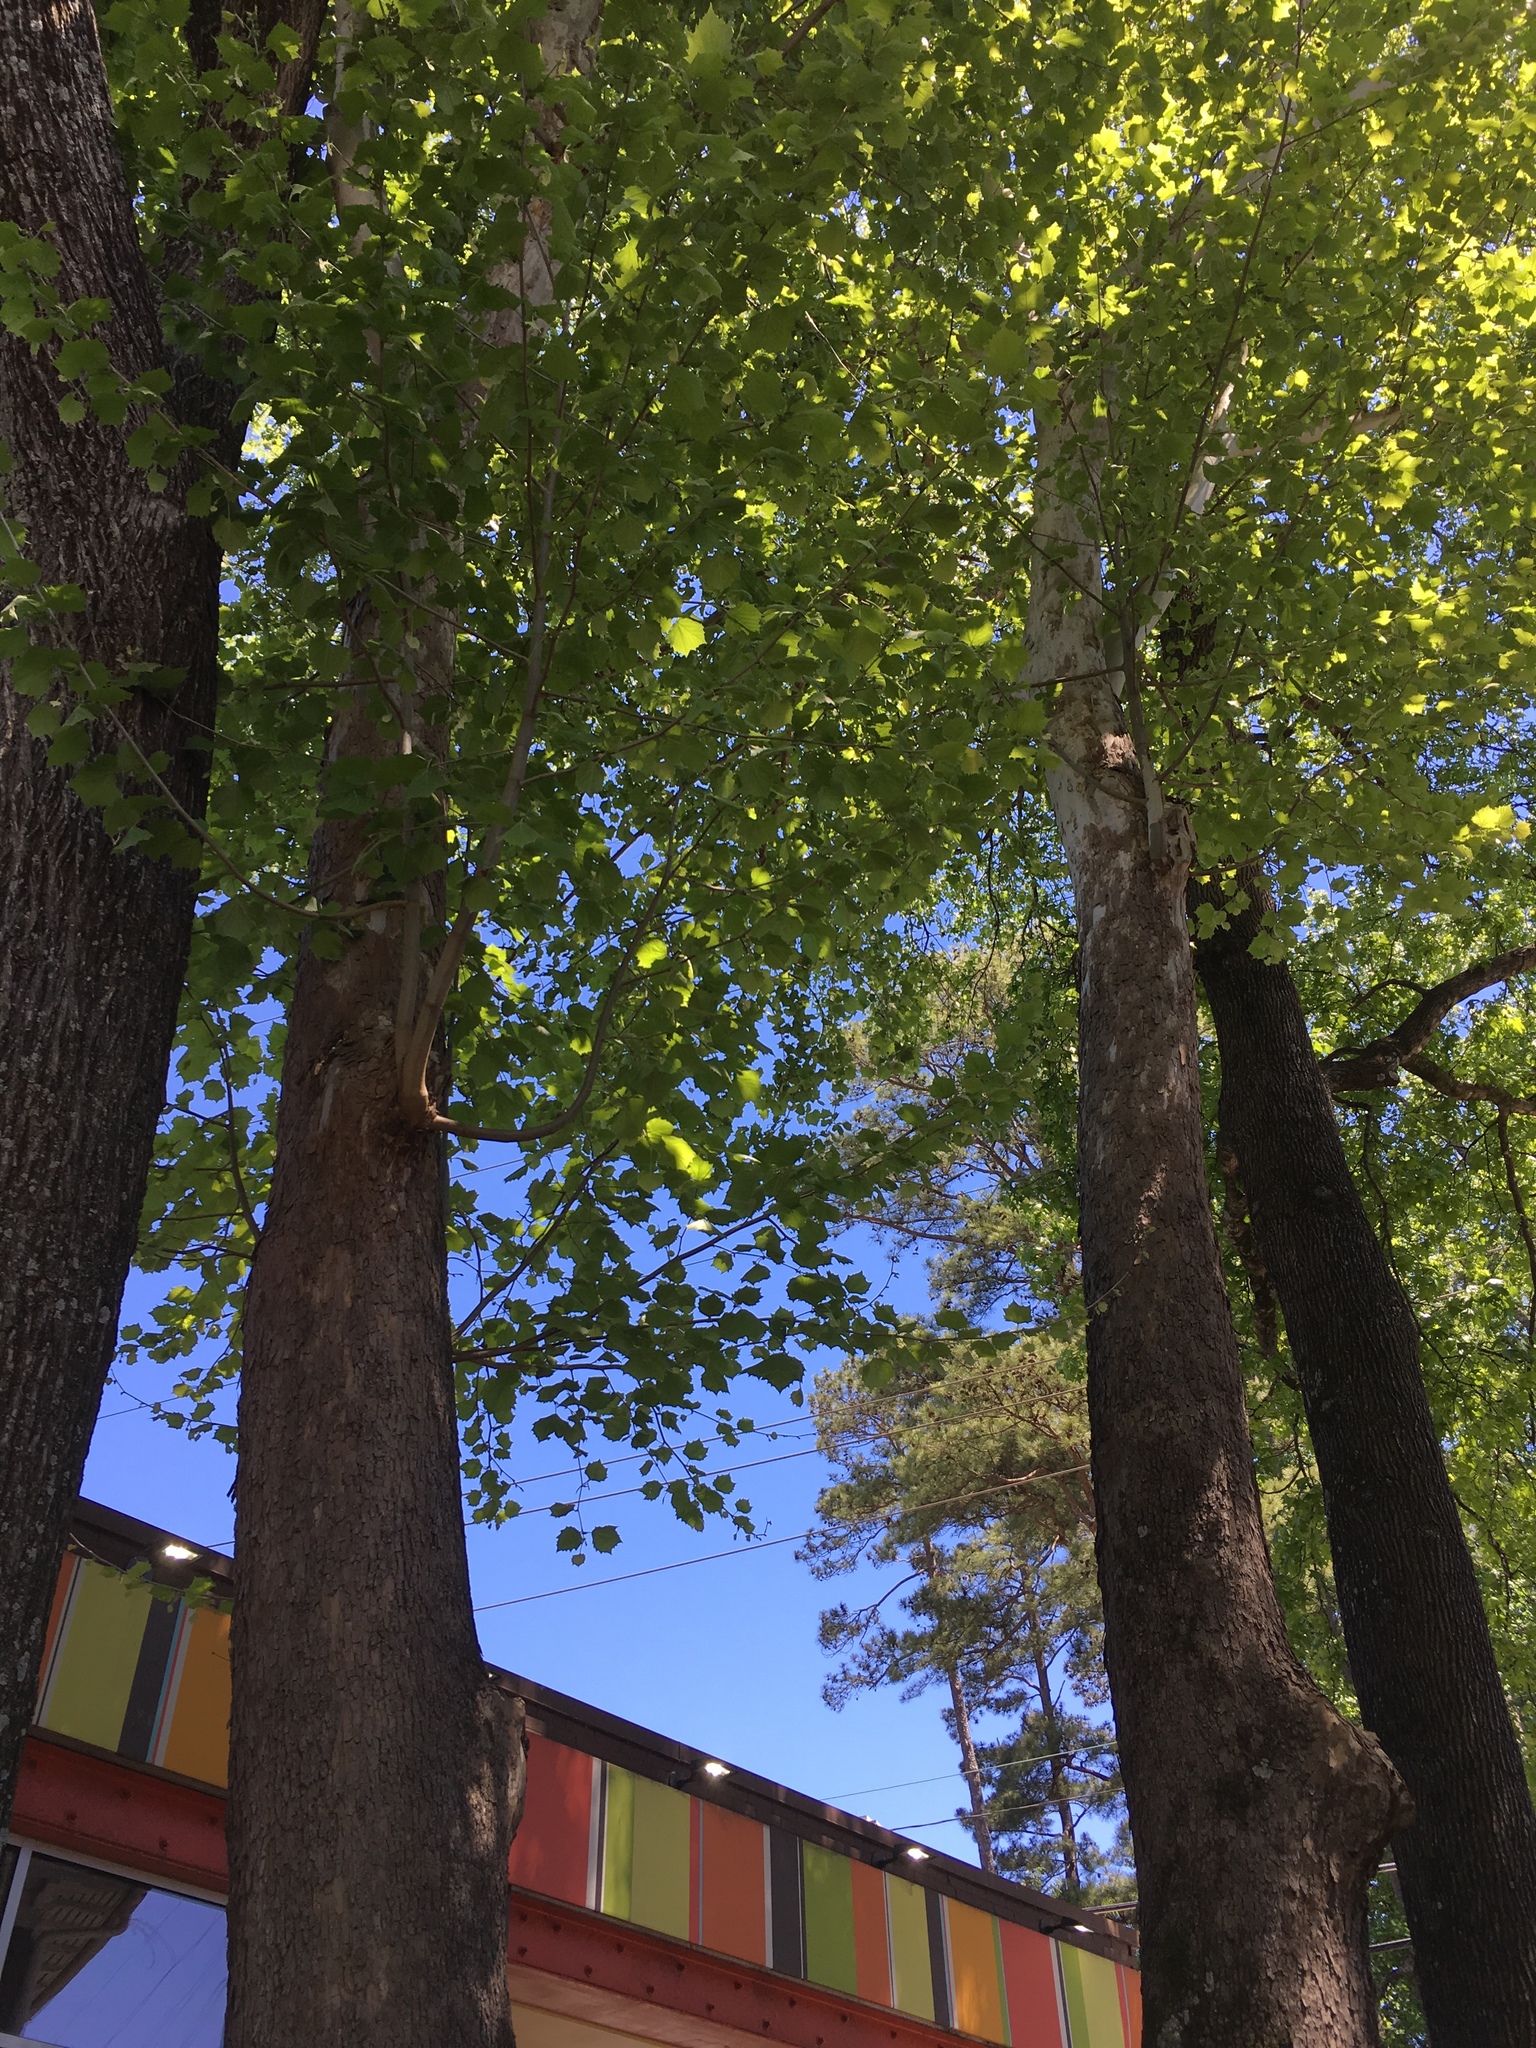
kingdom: Plantae
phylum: Tracheophyta
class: Magnoliopsida
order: Proteales
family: Platanaceae
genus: Platanus
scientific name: Platanus occidentalis
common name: American sycamore
